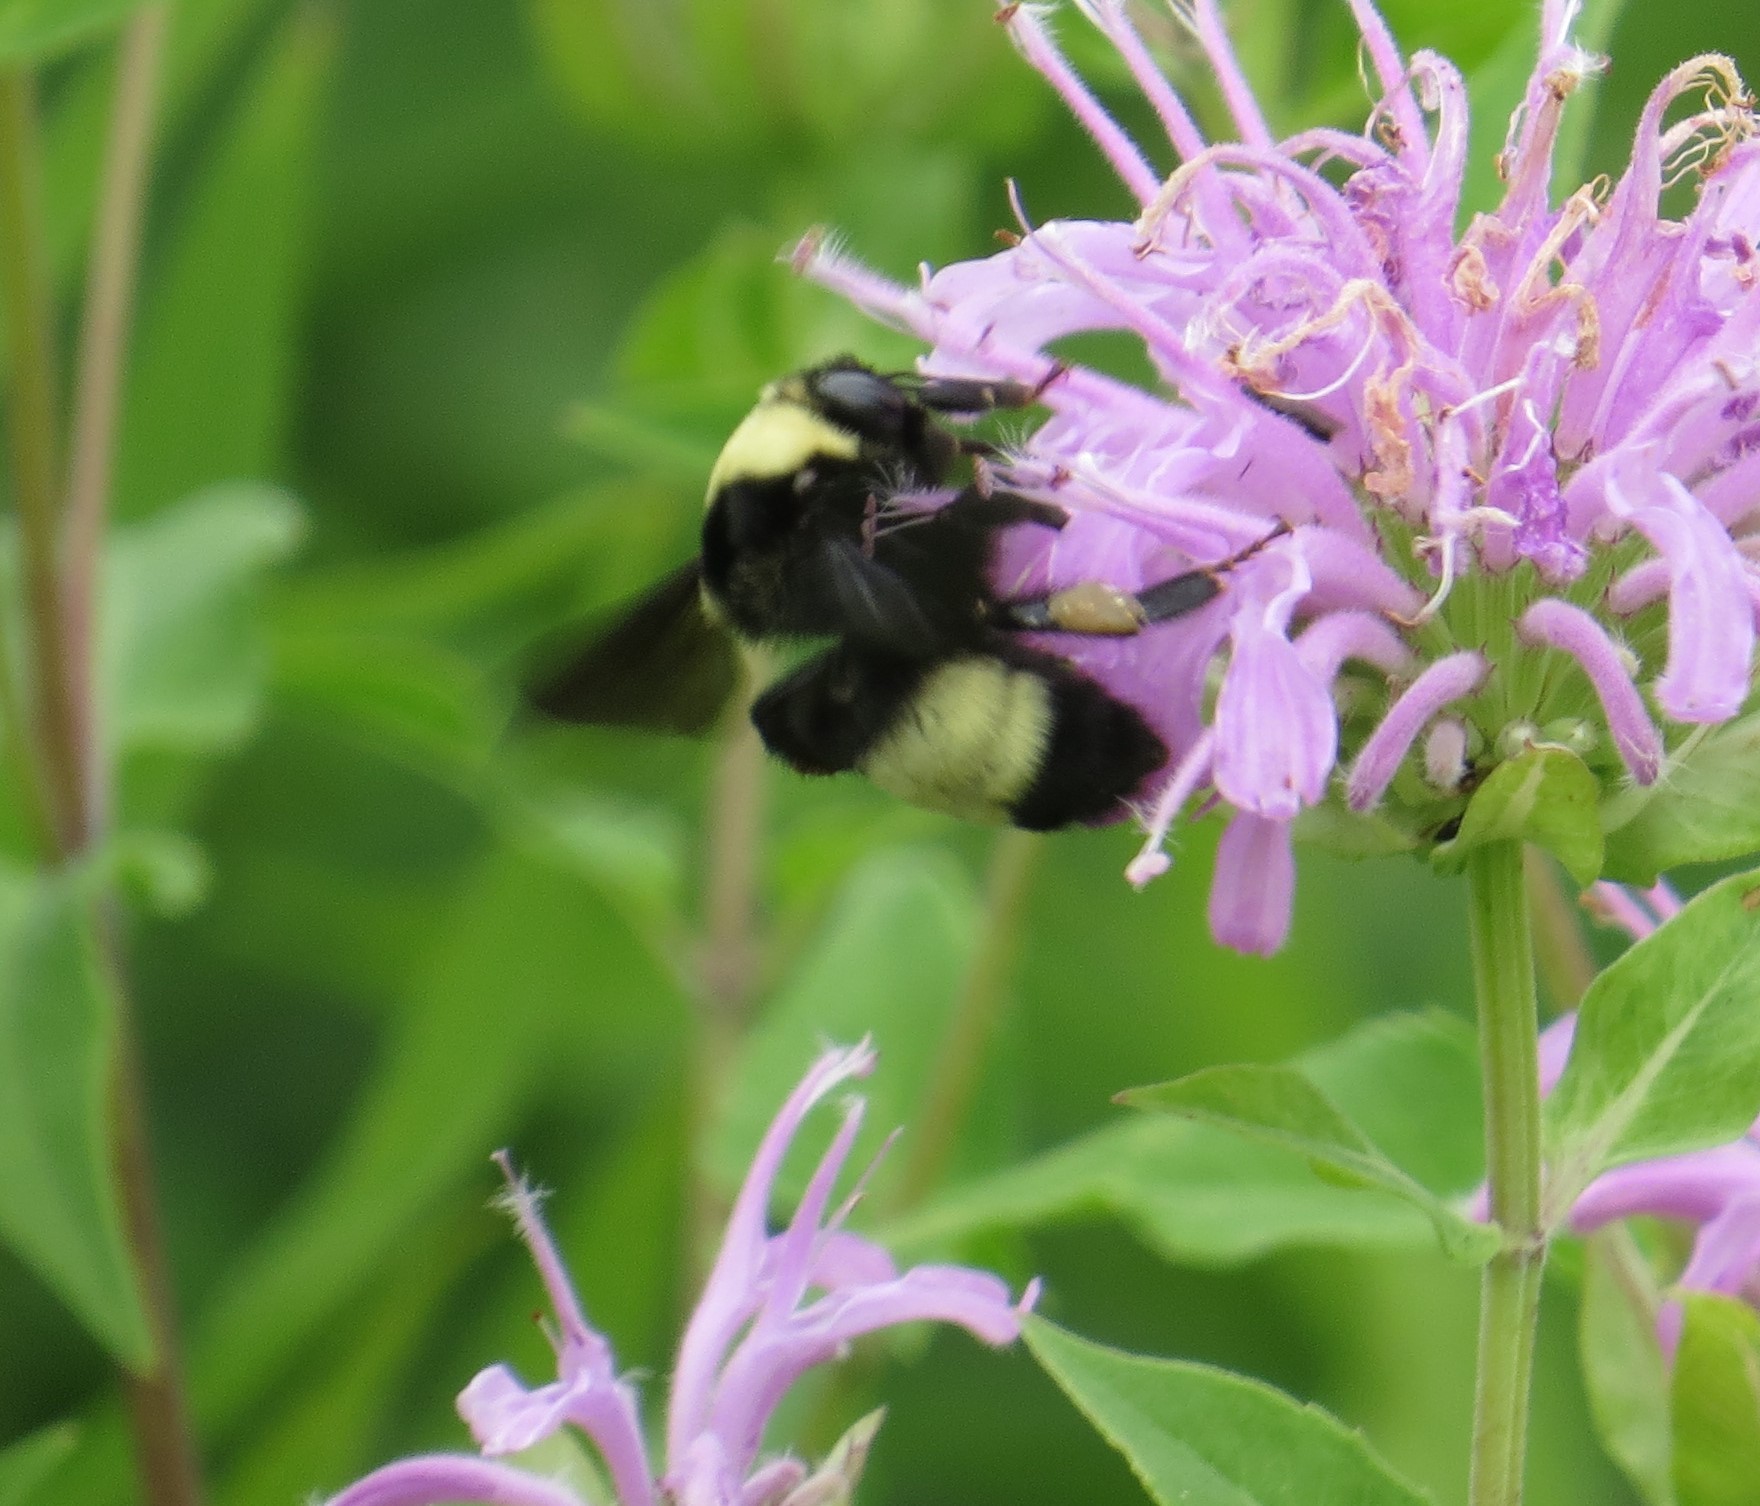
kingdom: Animalia
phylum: Arthropoda
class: Insecta
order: Hymenoptera
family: Apidae
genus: Bombus
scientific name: Bombus auricomus
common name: Black and gold bumble bee
